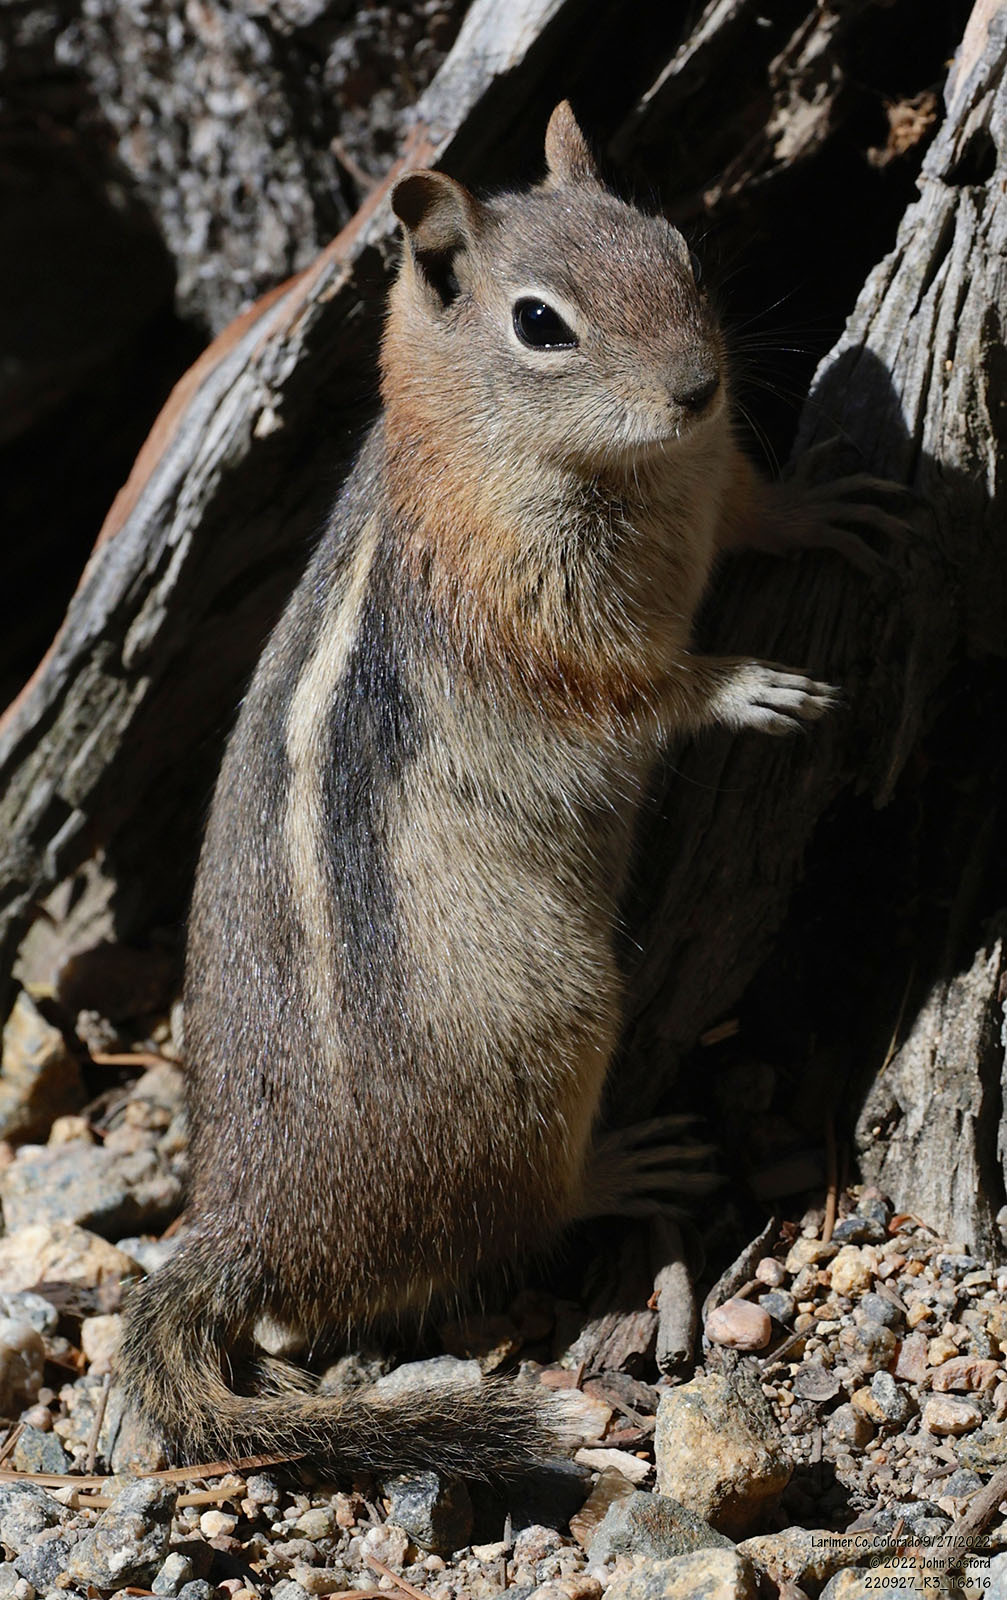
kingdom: Animalia
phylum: Chordata
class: Mammalia
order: Rodentia
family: Sciuridae
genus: Callospermophilus
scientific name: Callospermophilus lateralis
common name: Golden-mantled ground squirrel
